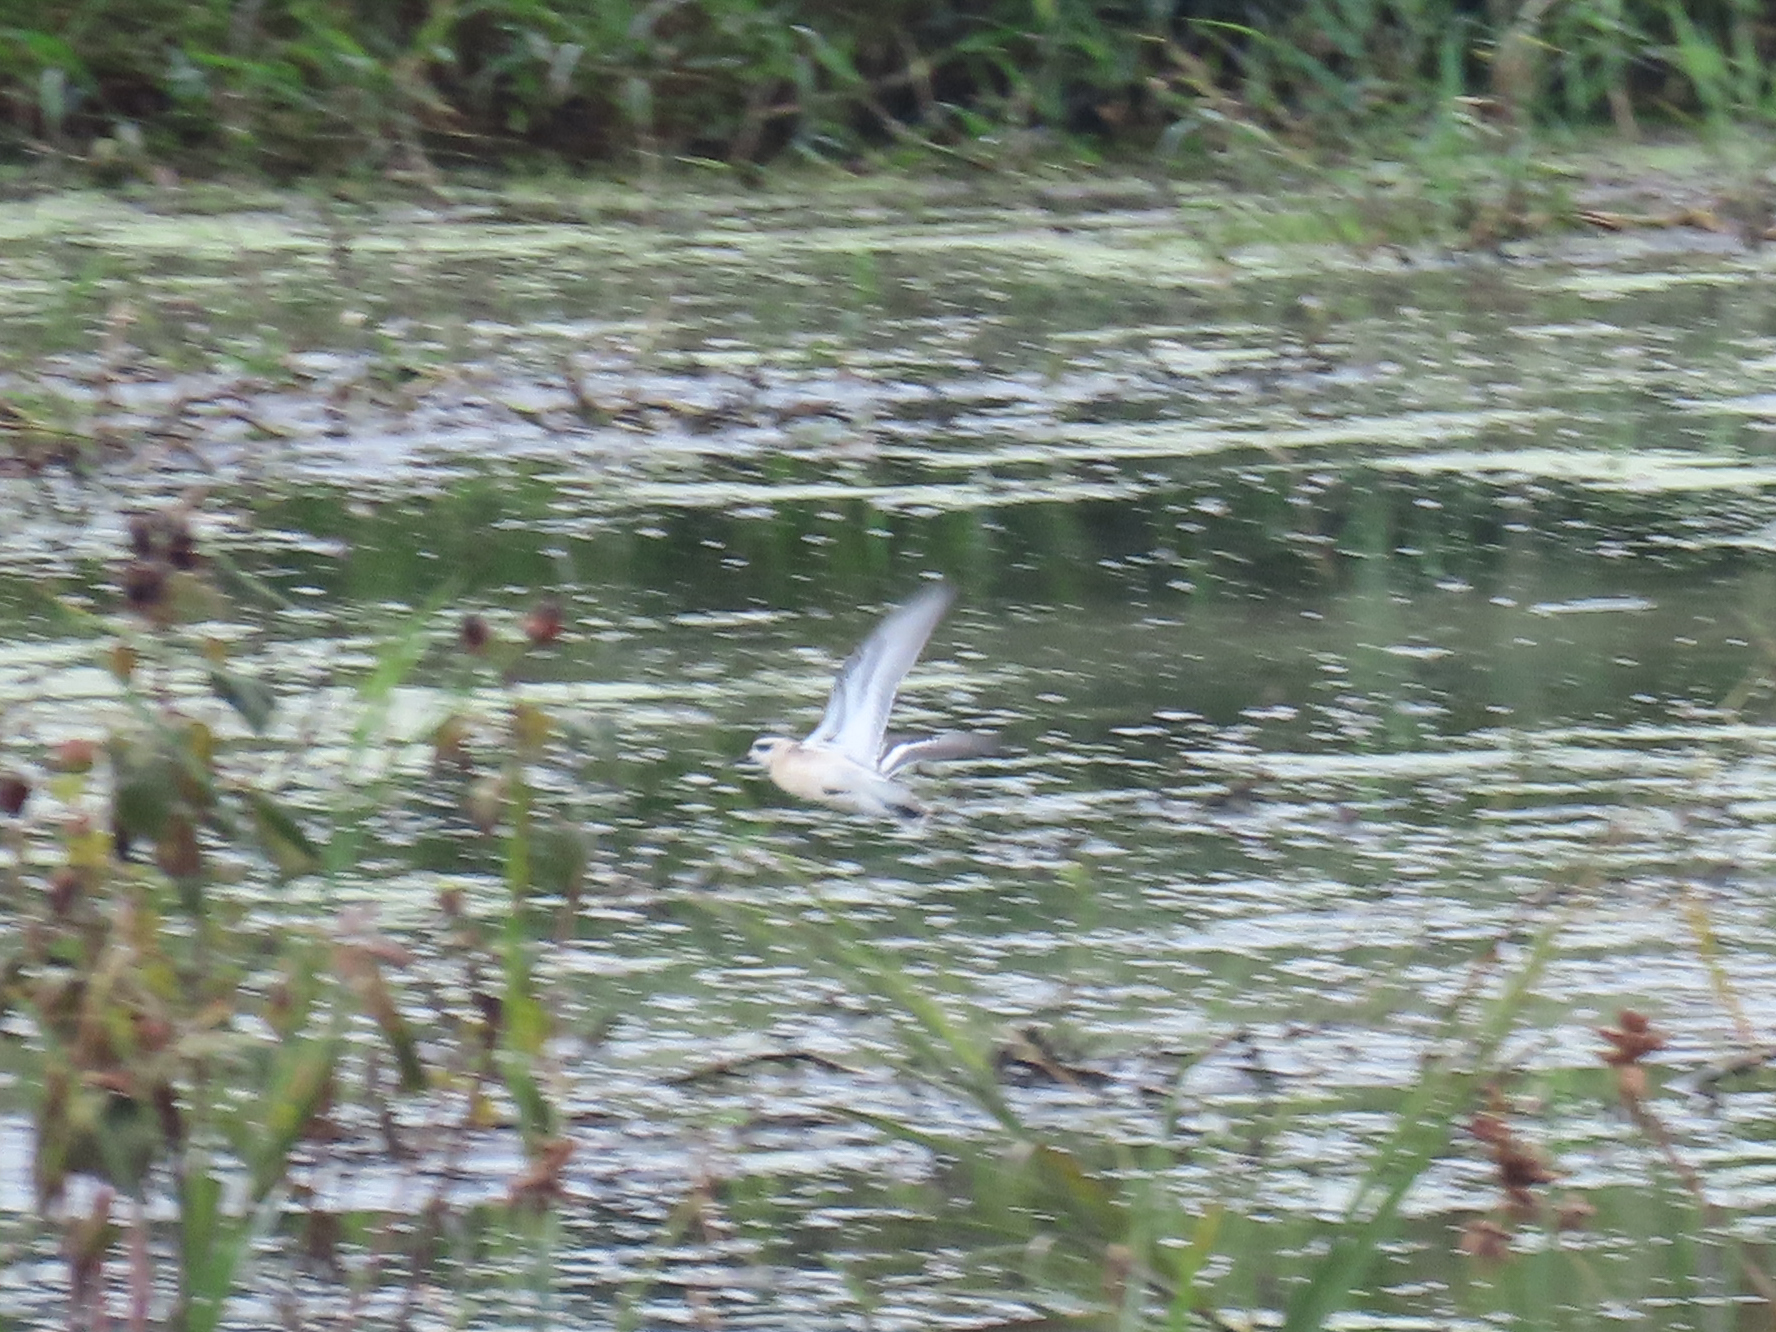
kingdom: Animalia
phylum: Chordata
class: Aves
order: Charadriiformes
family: Scolopacidae
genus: Phalaropus
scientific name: Phalaropus lobatus
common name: Red-necked phalarope
